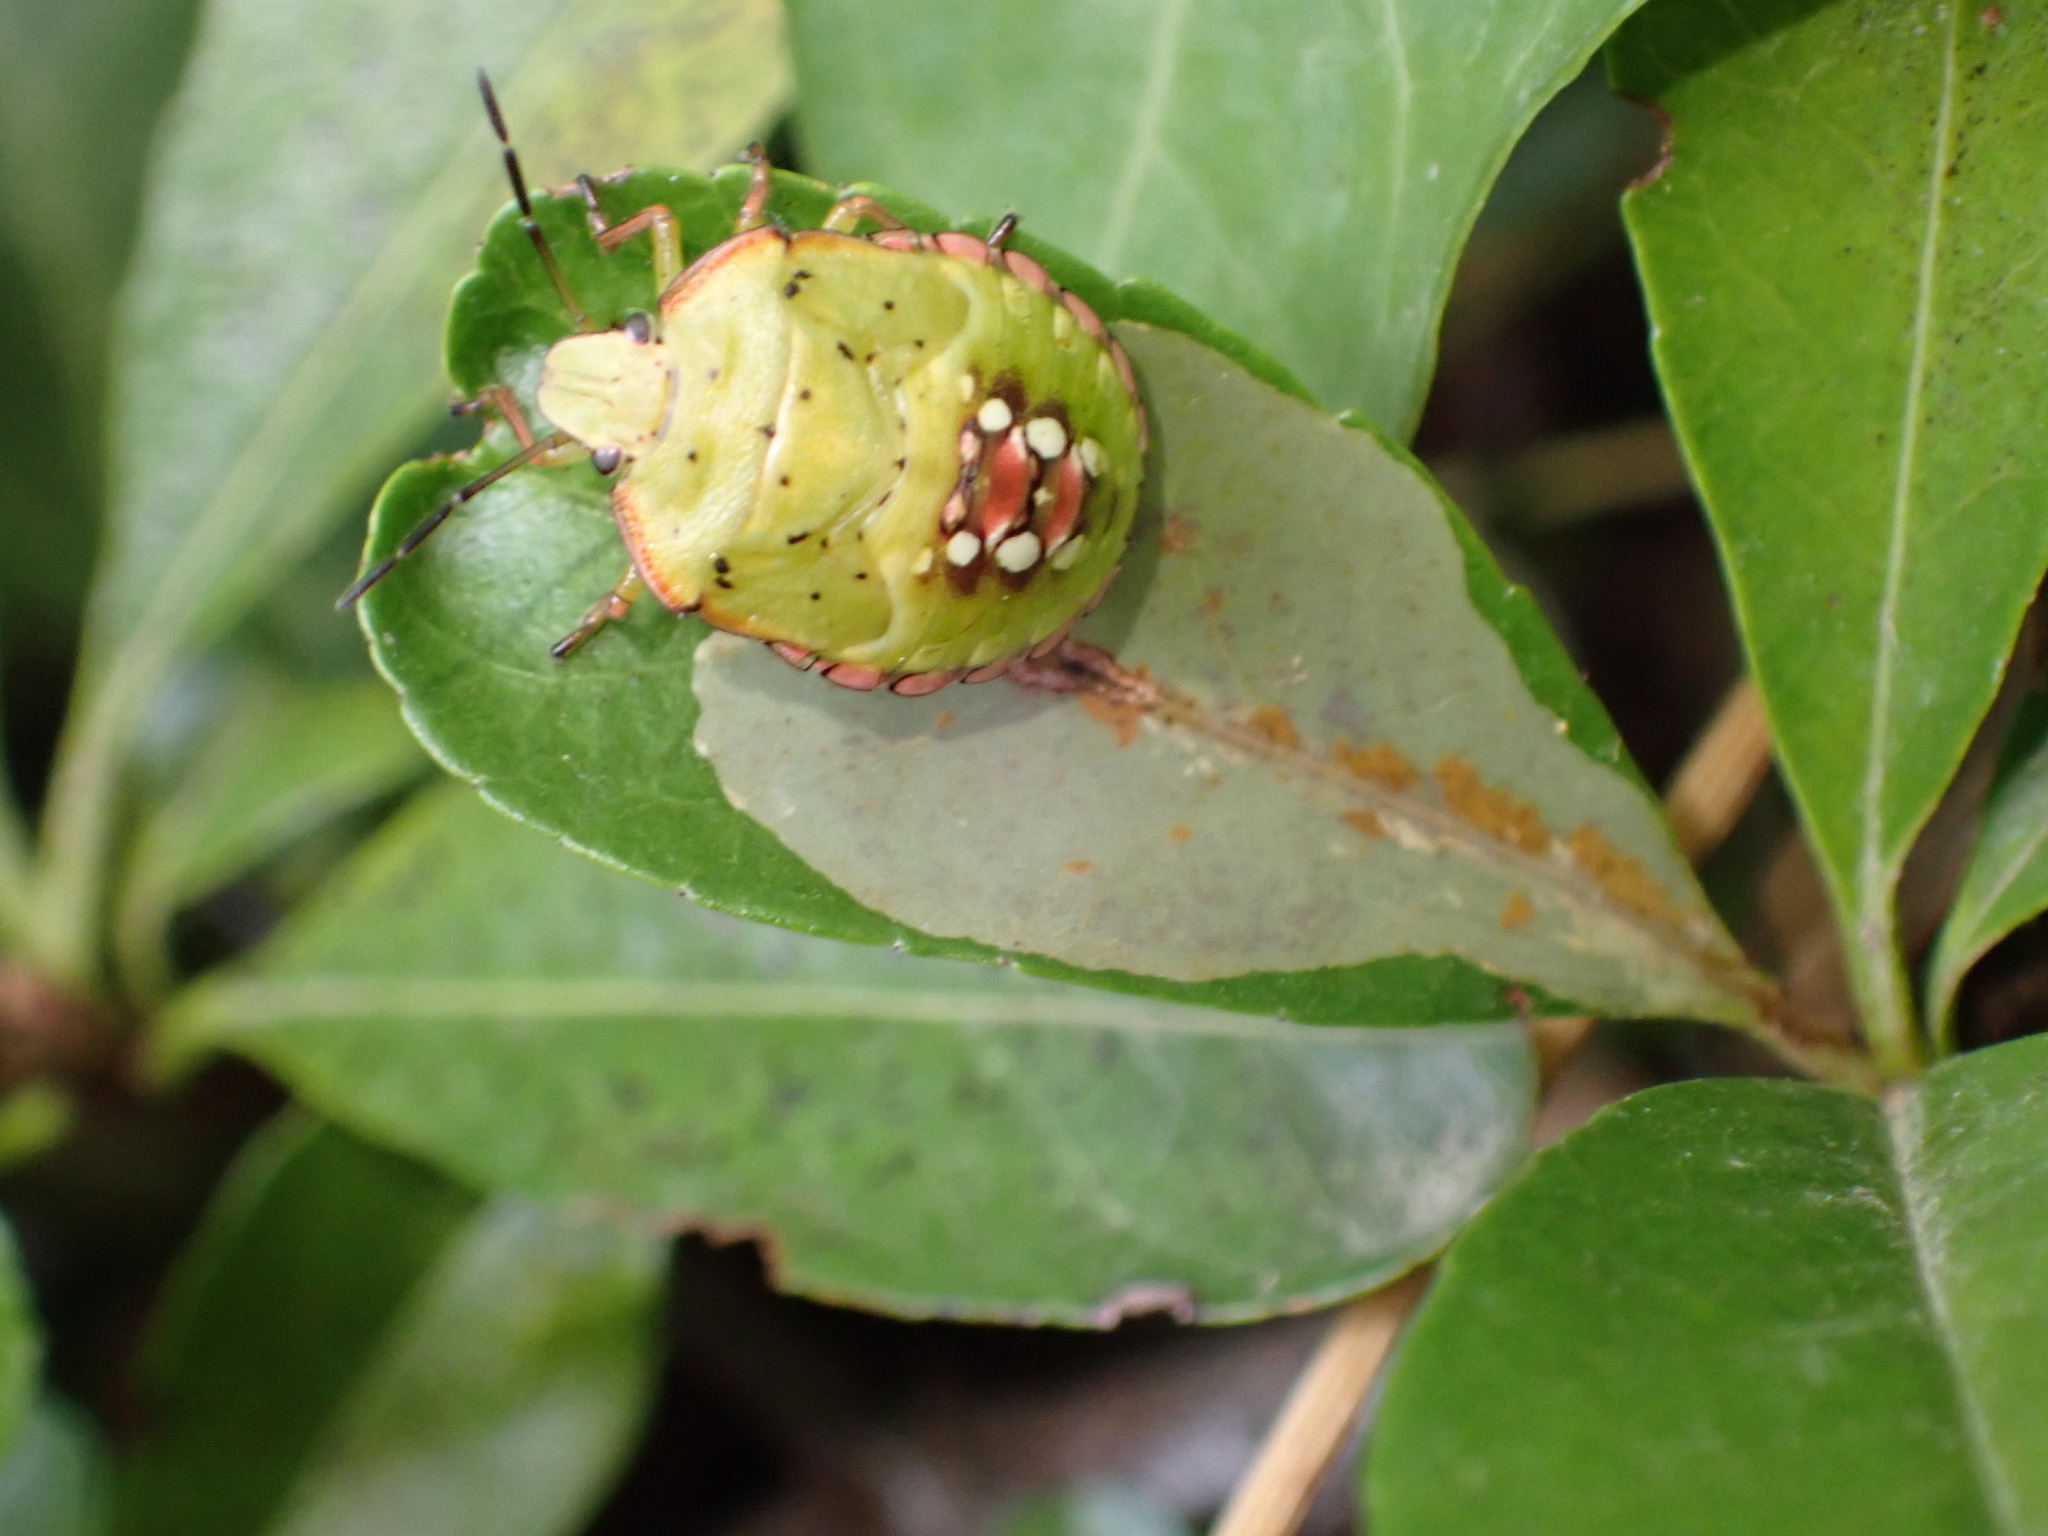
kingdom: Animalia
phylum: Arthropoda
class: Insecta
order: Hemiptera
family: Pentatomidae
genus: Nezara
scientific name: Nezara viridula
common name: Southern green stink bug
